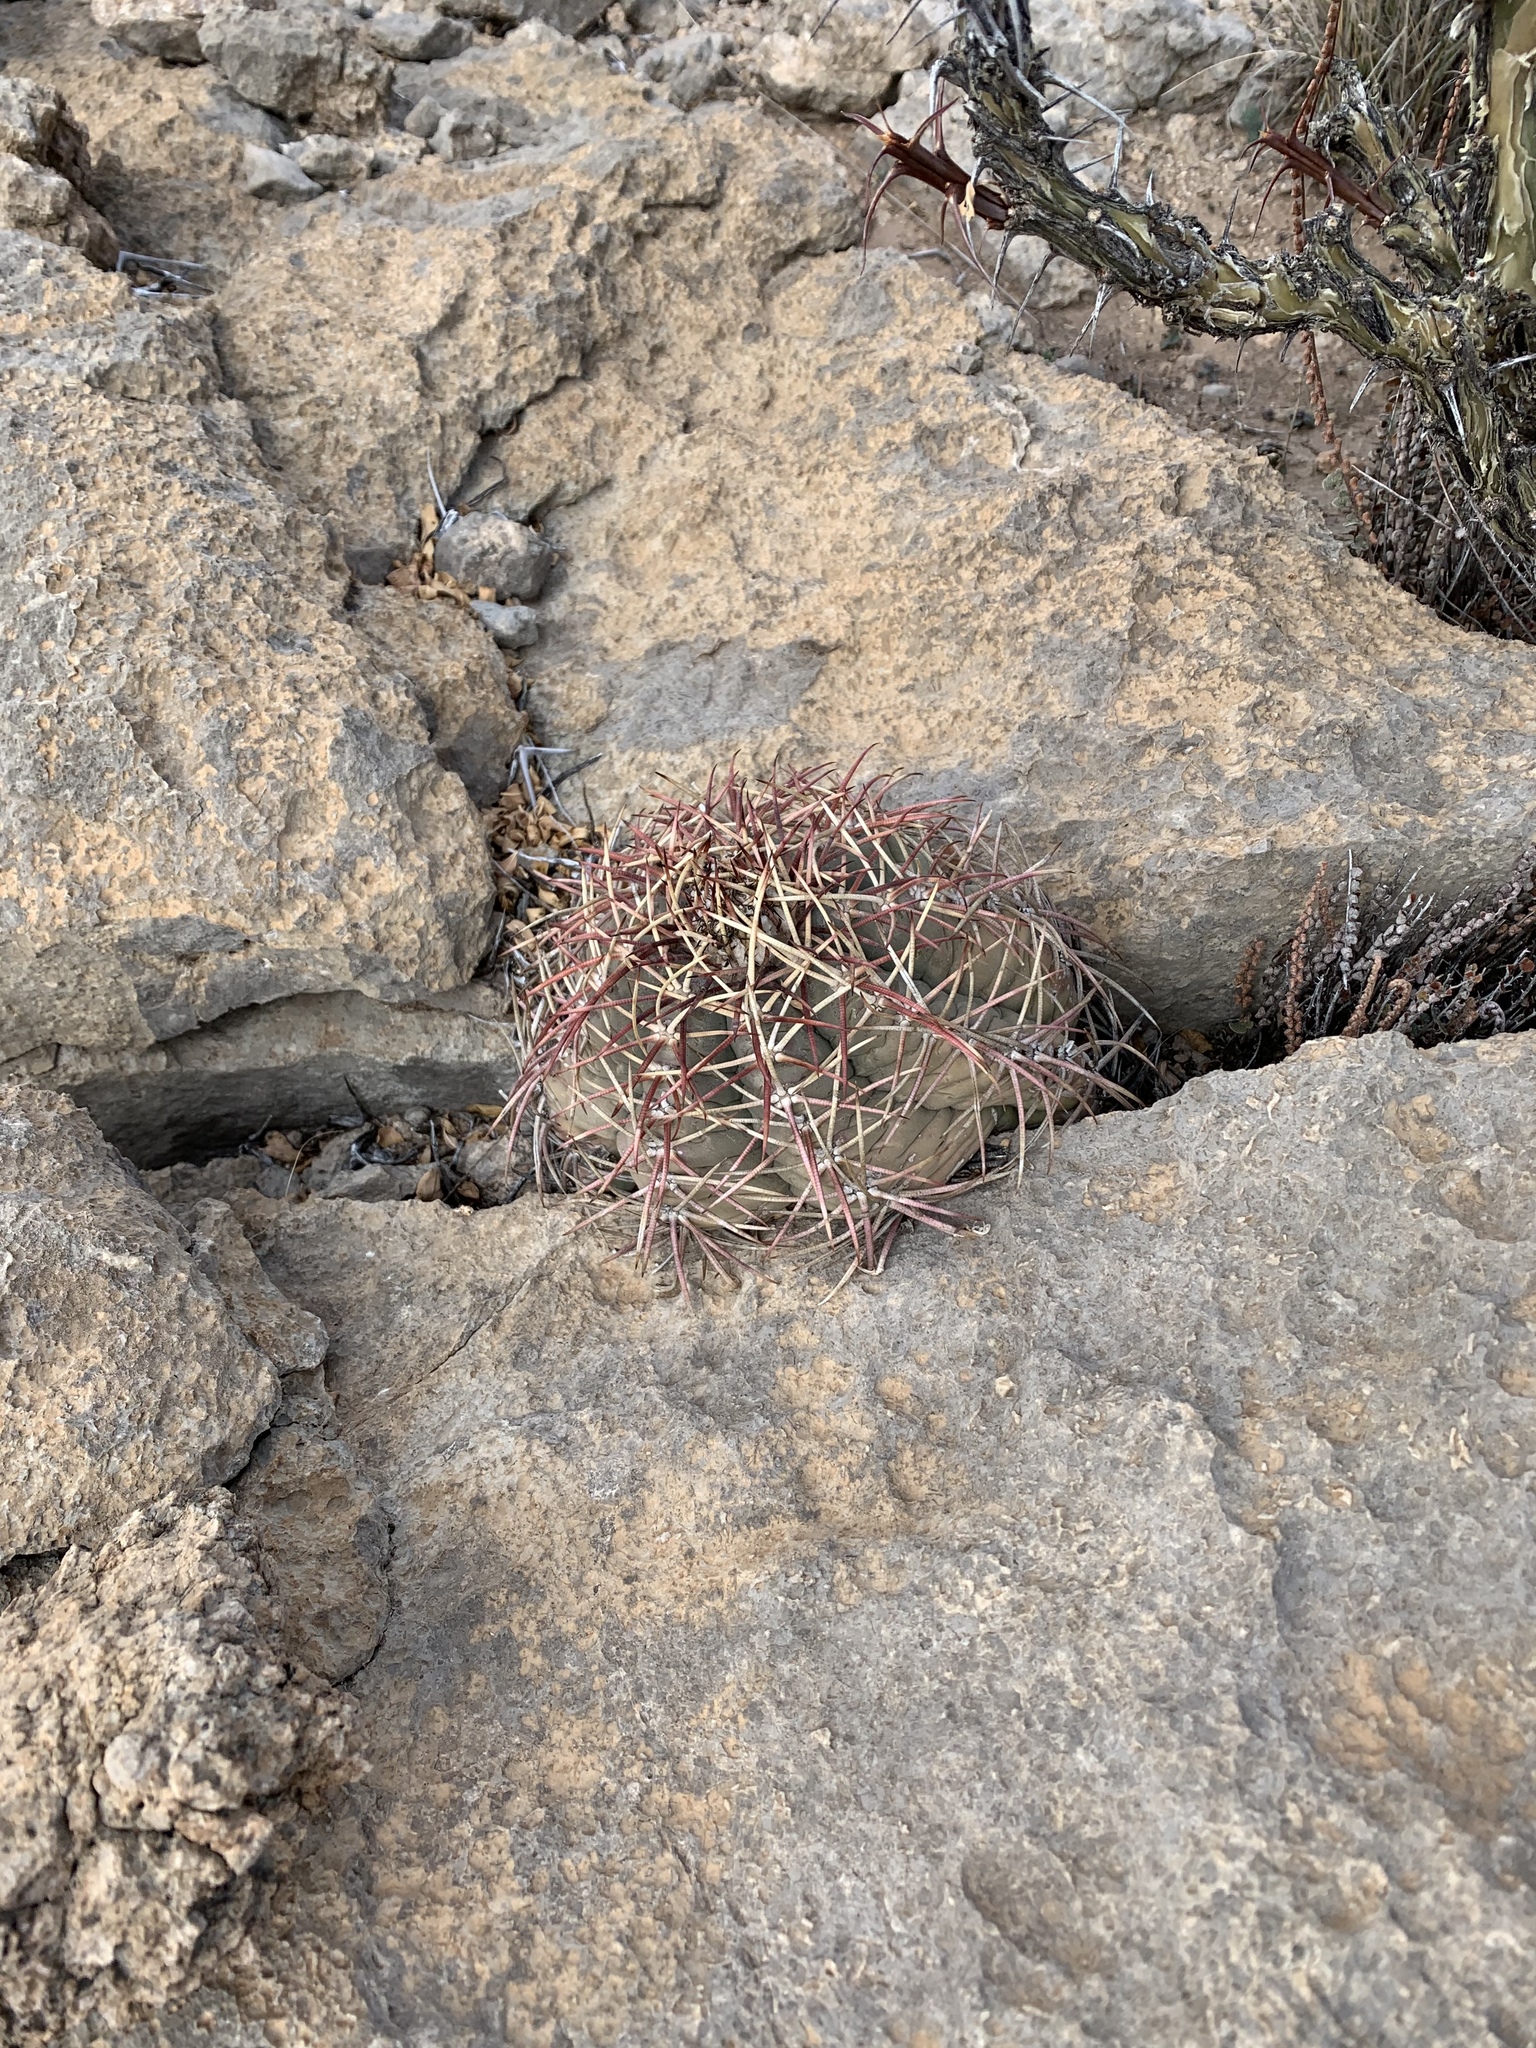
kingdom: Plantae
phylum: Tracheophyta
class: Magnoliopsida
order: Caryophyllales
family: Cactaceae
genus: Echinocactus
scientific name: Echinocactus horizonthalonius
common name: Devilshead
